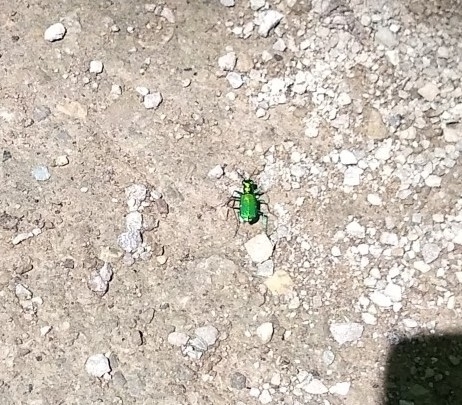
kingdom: Animalia
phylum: Arthropoda
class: Insecta
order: Coleoptera
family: Carabidae
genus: Cicindela
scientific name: Cicindela sexguttata
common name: Six-spotted tiger beetle
